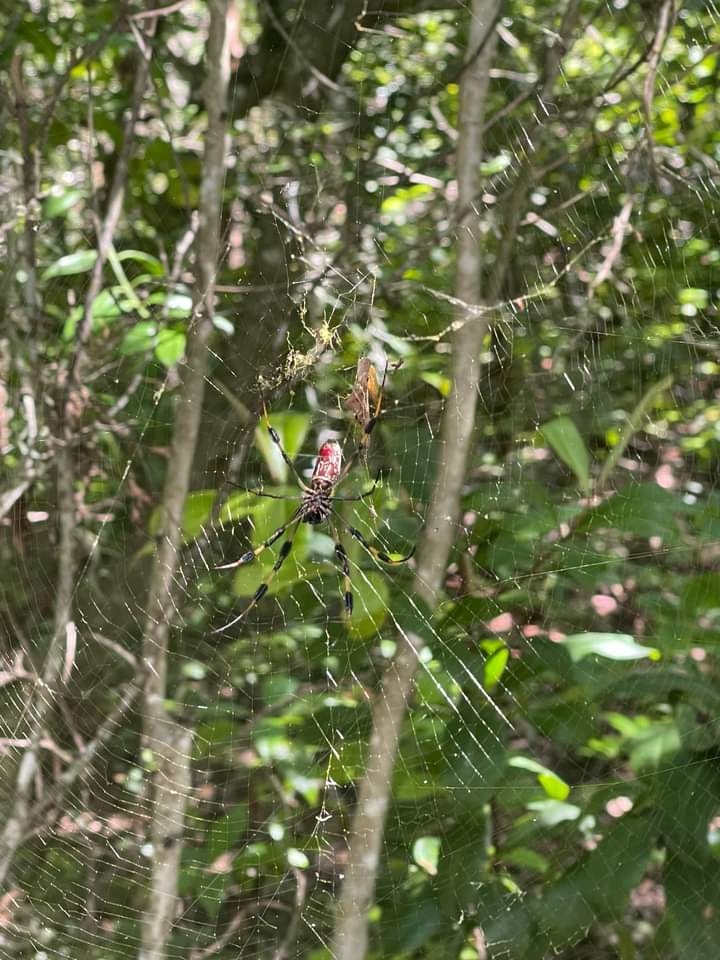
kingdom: Animalia
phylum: Arthropoda
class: Arachnida
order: Araneae
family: Araneidae
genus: Trichonephila
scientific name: Trichonephila clavipes
